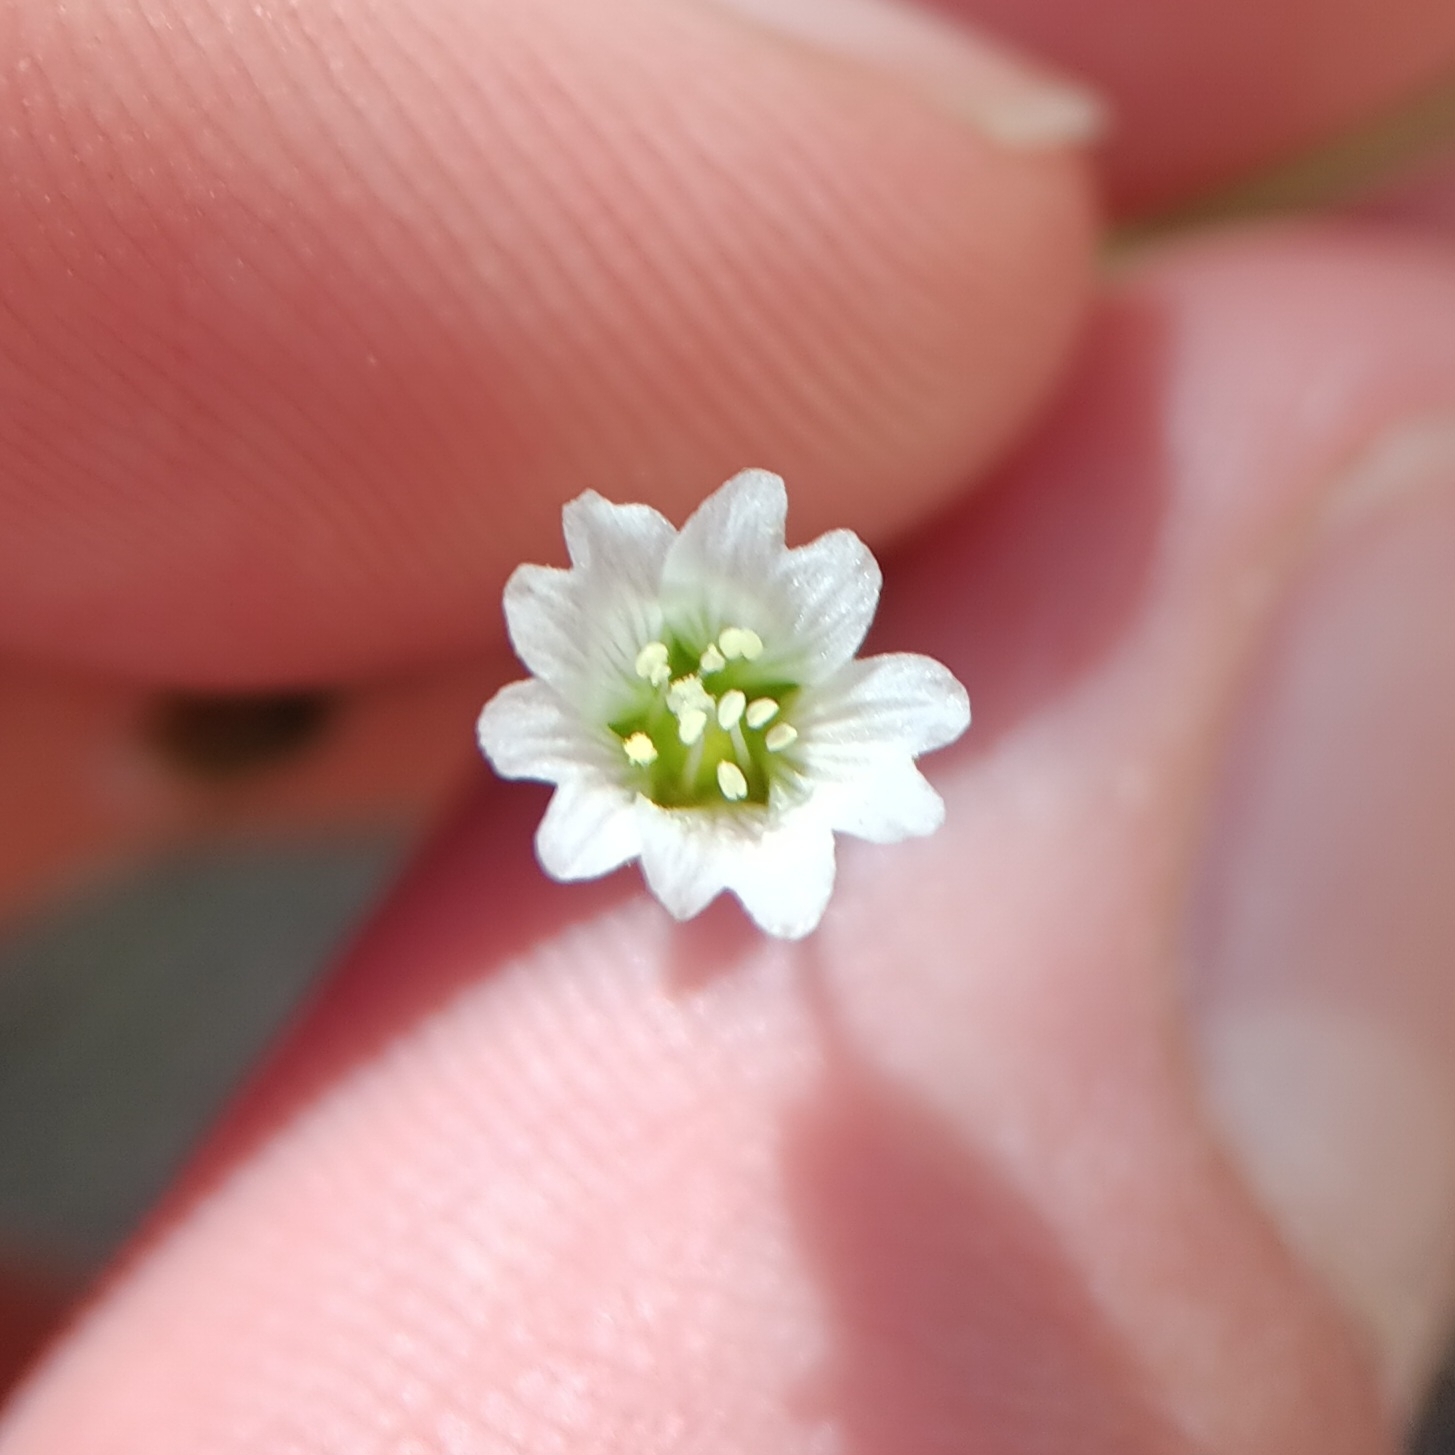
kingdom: Plantae
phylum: Tracheophyta
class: Magnoliopsida
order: Caryophyllales
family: Caryophyllaceae
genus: Cerastium
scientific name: Cerastium texanum
